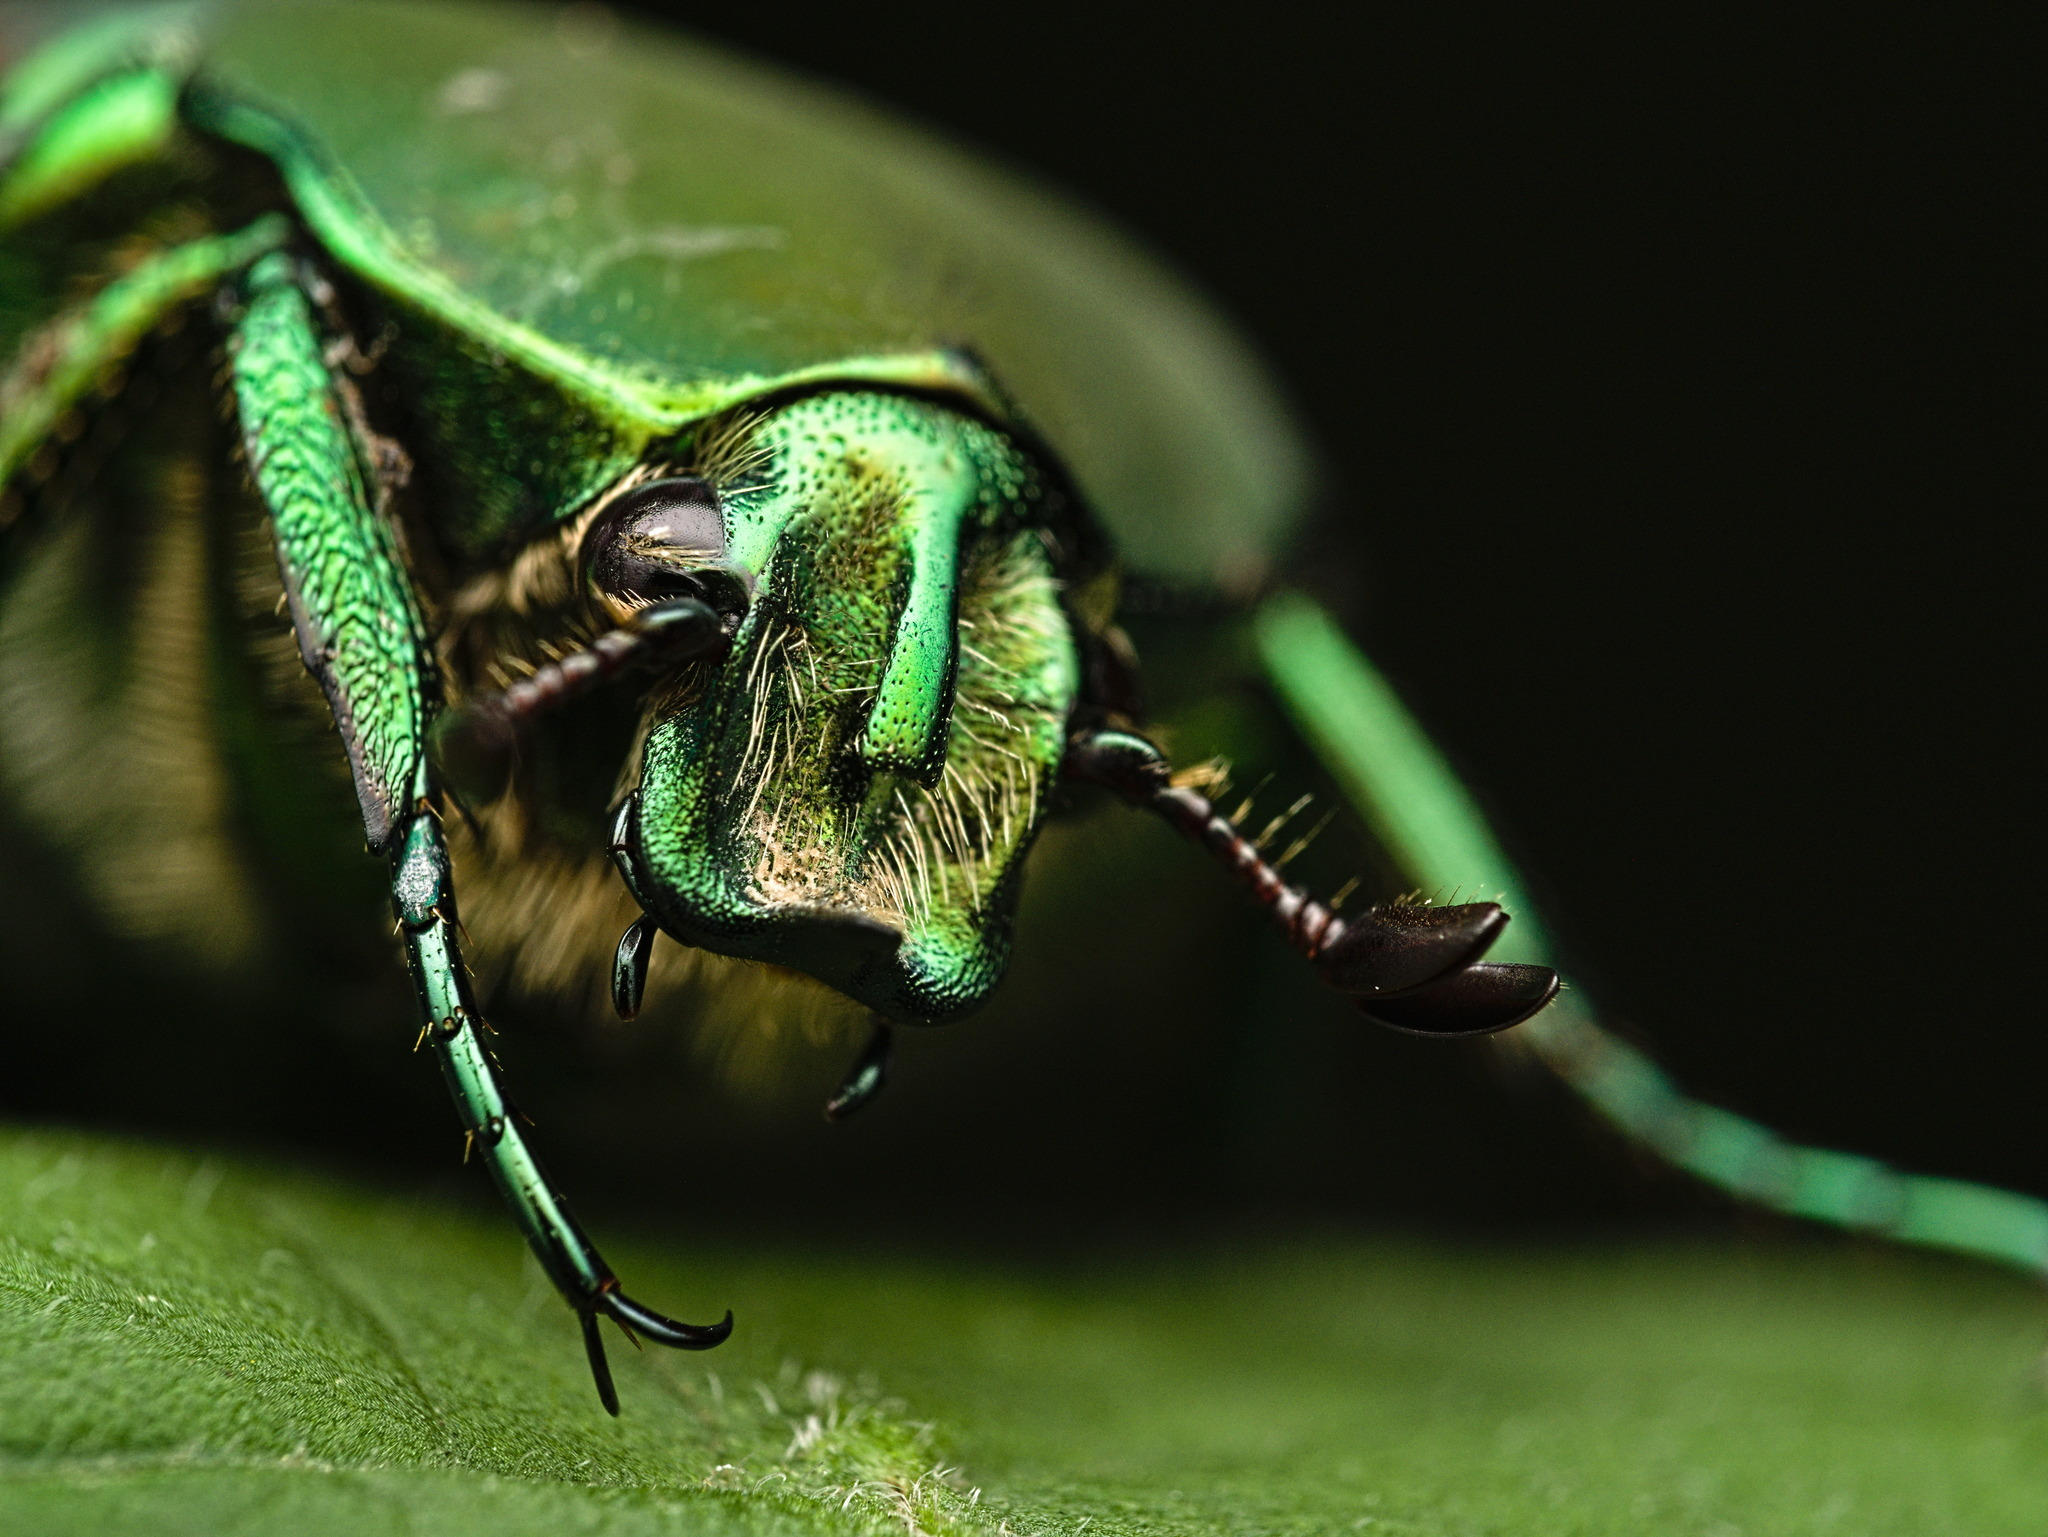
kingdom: Animalia
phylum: Arthropoda
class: Insecta
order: Coleoptera
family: Scarabaeidae
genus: Cotinis
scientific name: Cotinis mutabilis
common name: Figeater beetle
